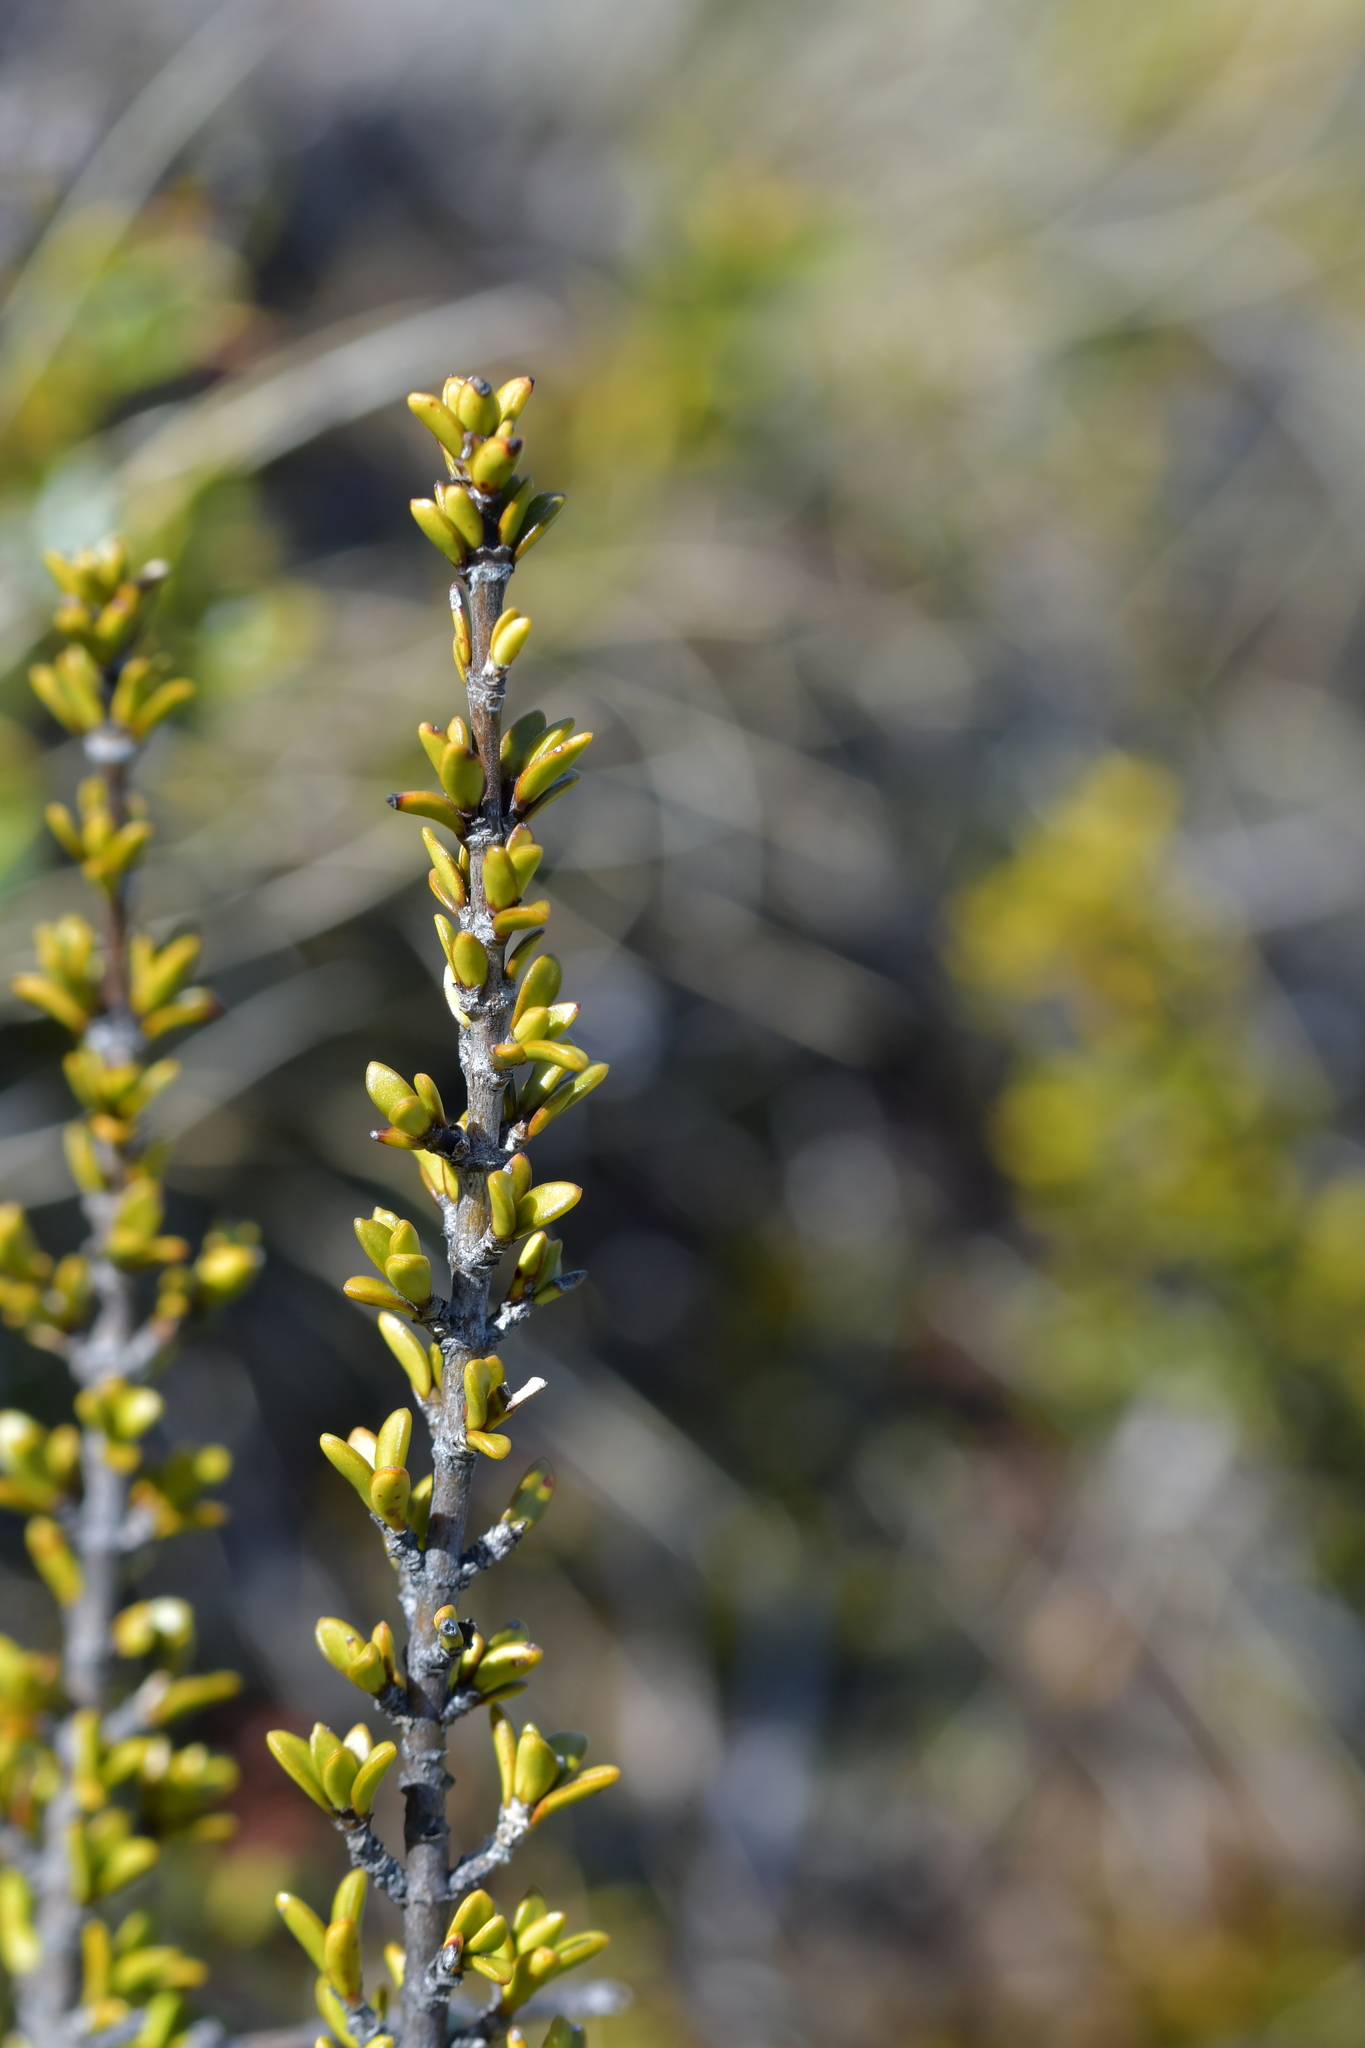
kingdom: Plantae
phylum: Tracheophyta
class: Magnoliopsida
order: Gentianales
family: Rubiaceae
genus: Coprosma
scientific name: Coprosma fowerakeri
